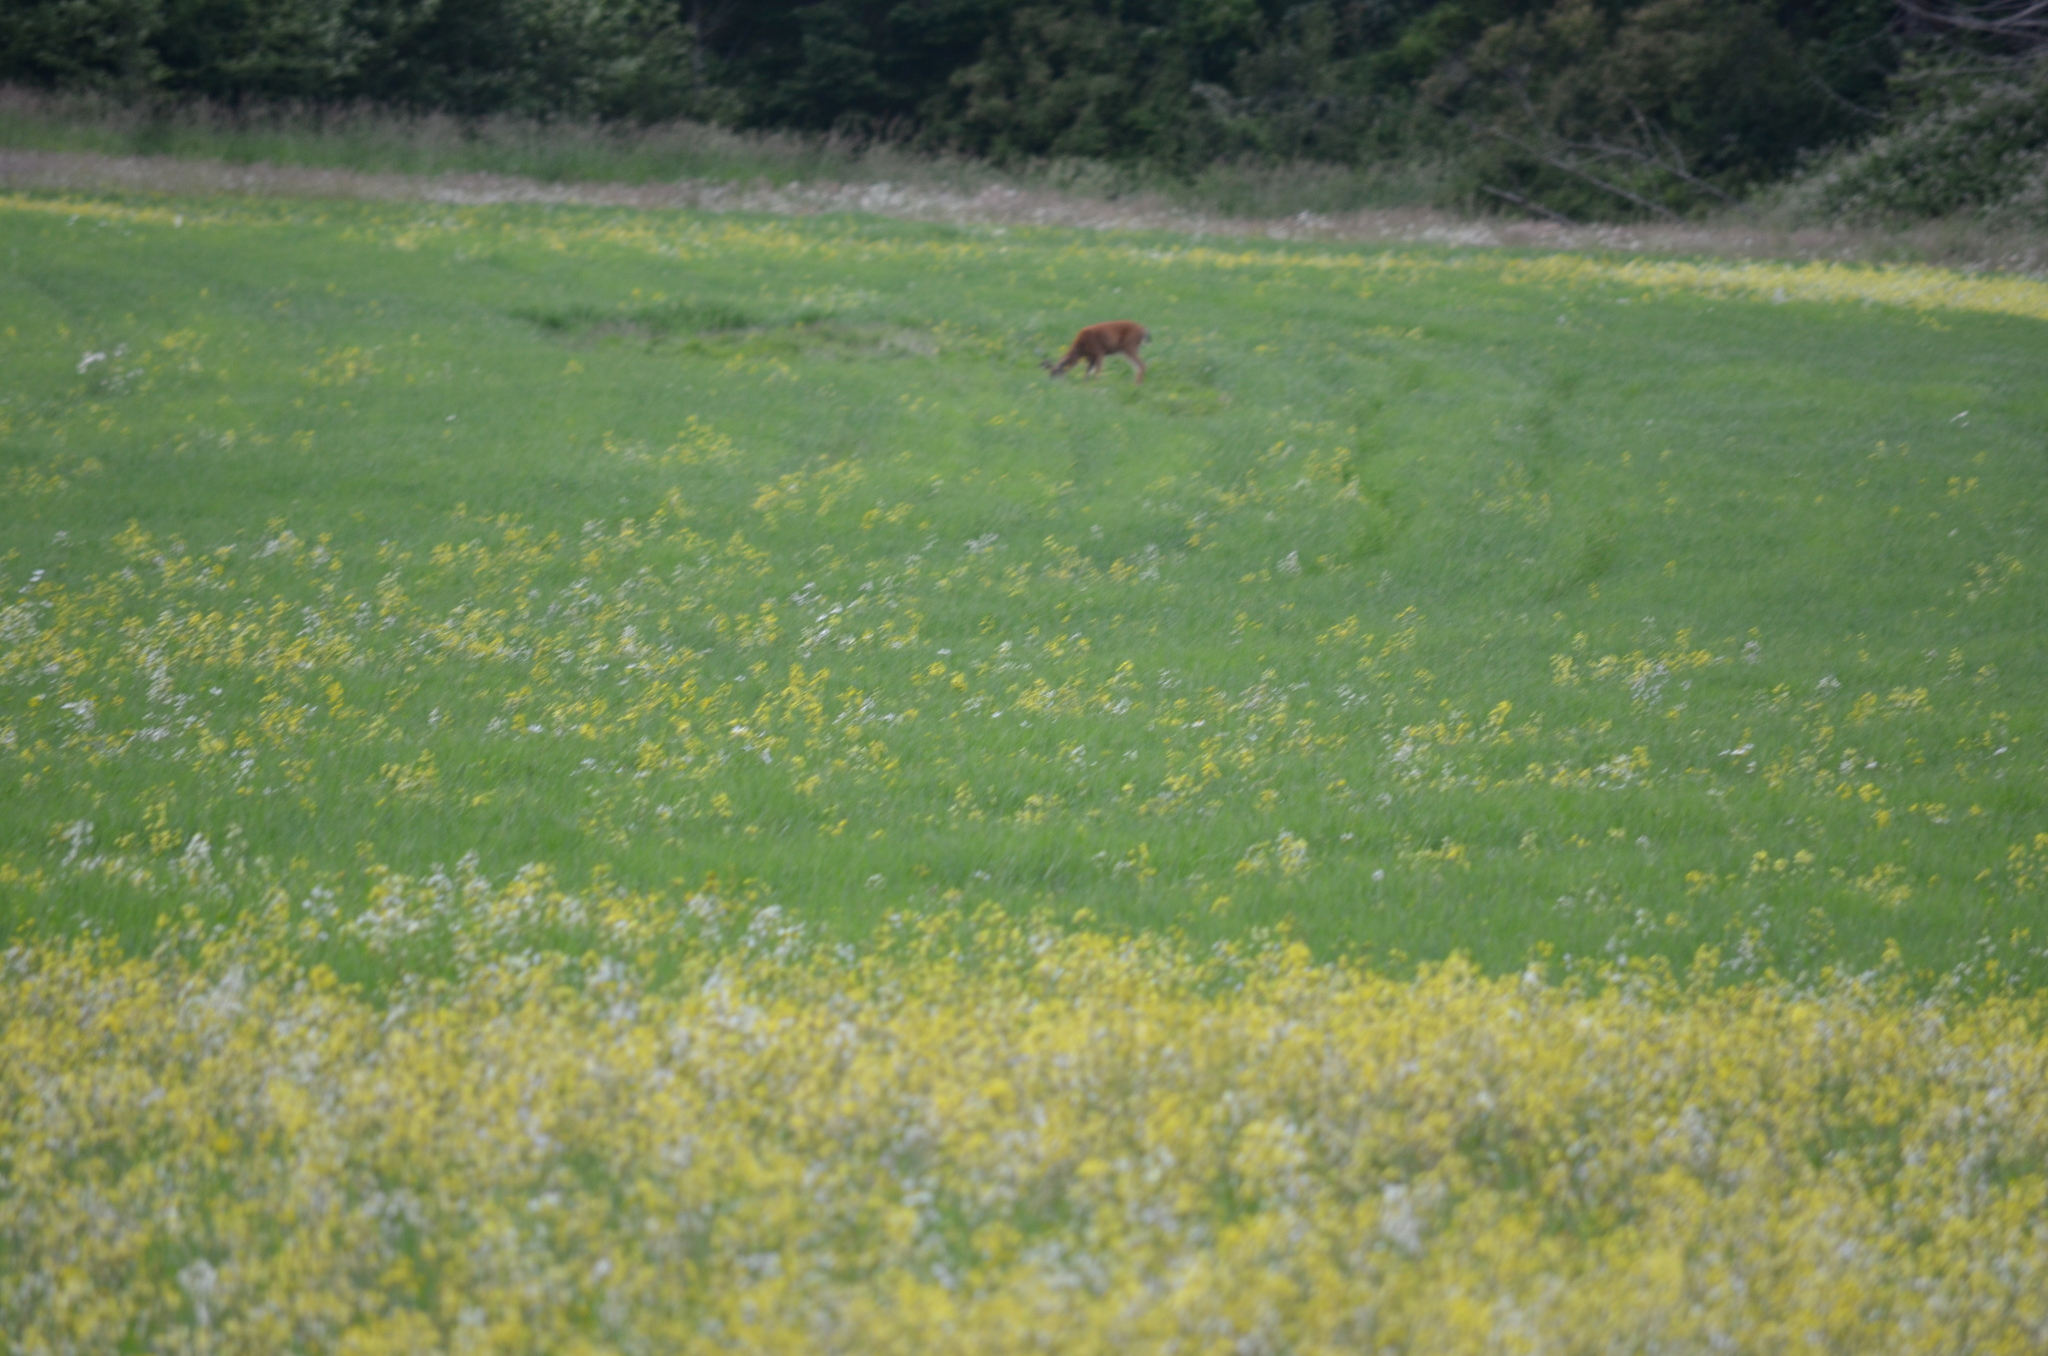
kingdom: Animalia
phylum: Chordata
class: Mammalia
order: Artiodactyla
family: Cervidae
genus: Odocoileus
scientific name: Odocoileus hemionus
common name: Mule deer
